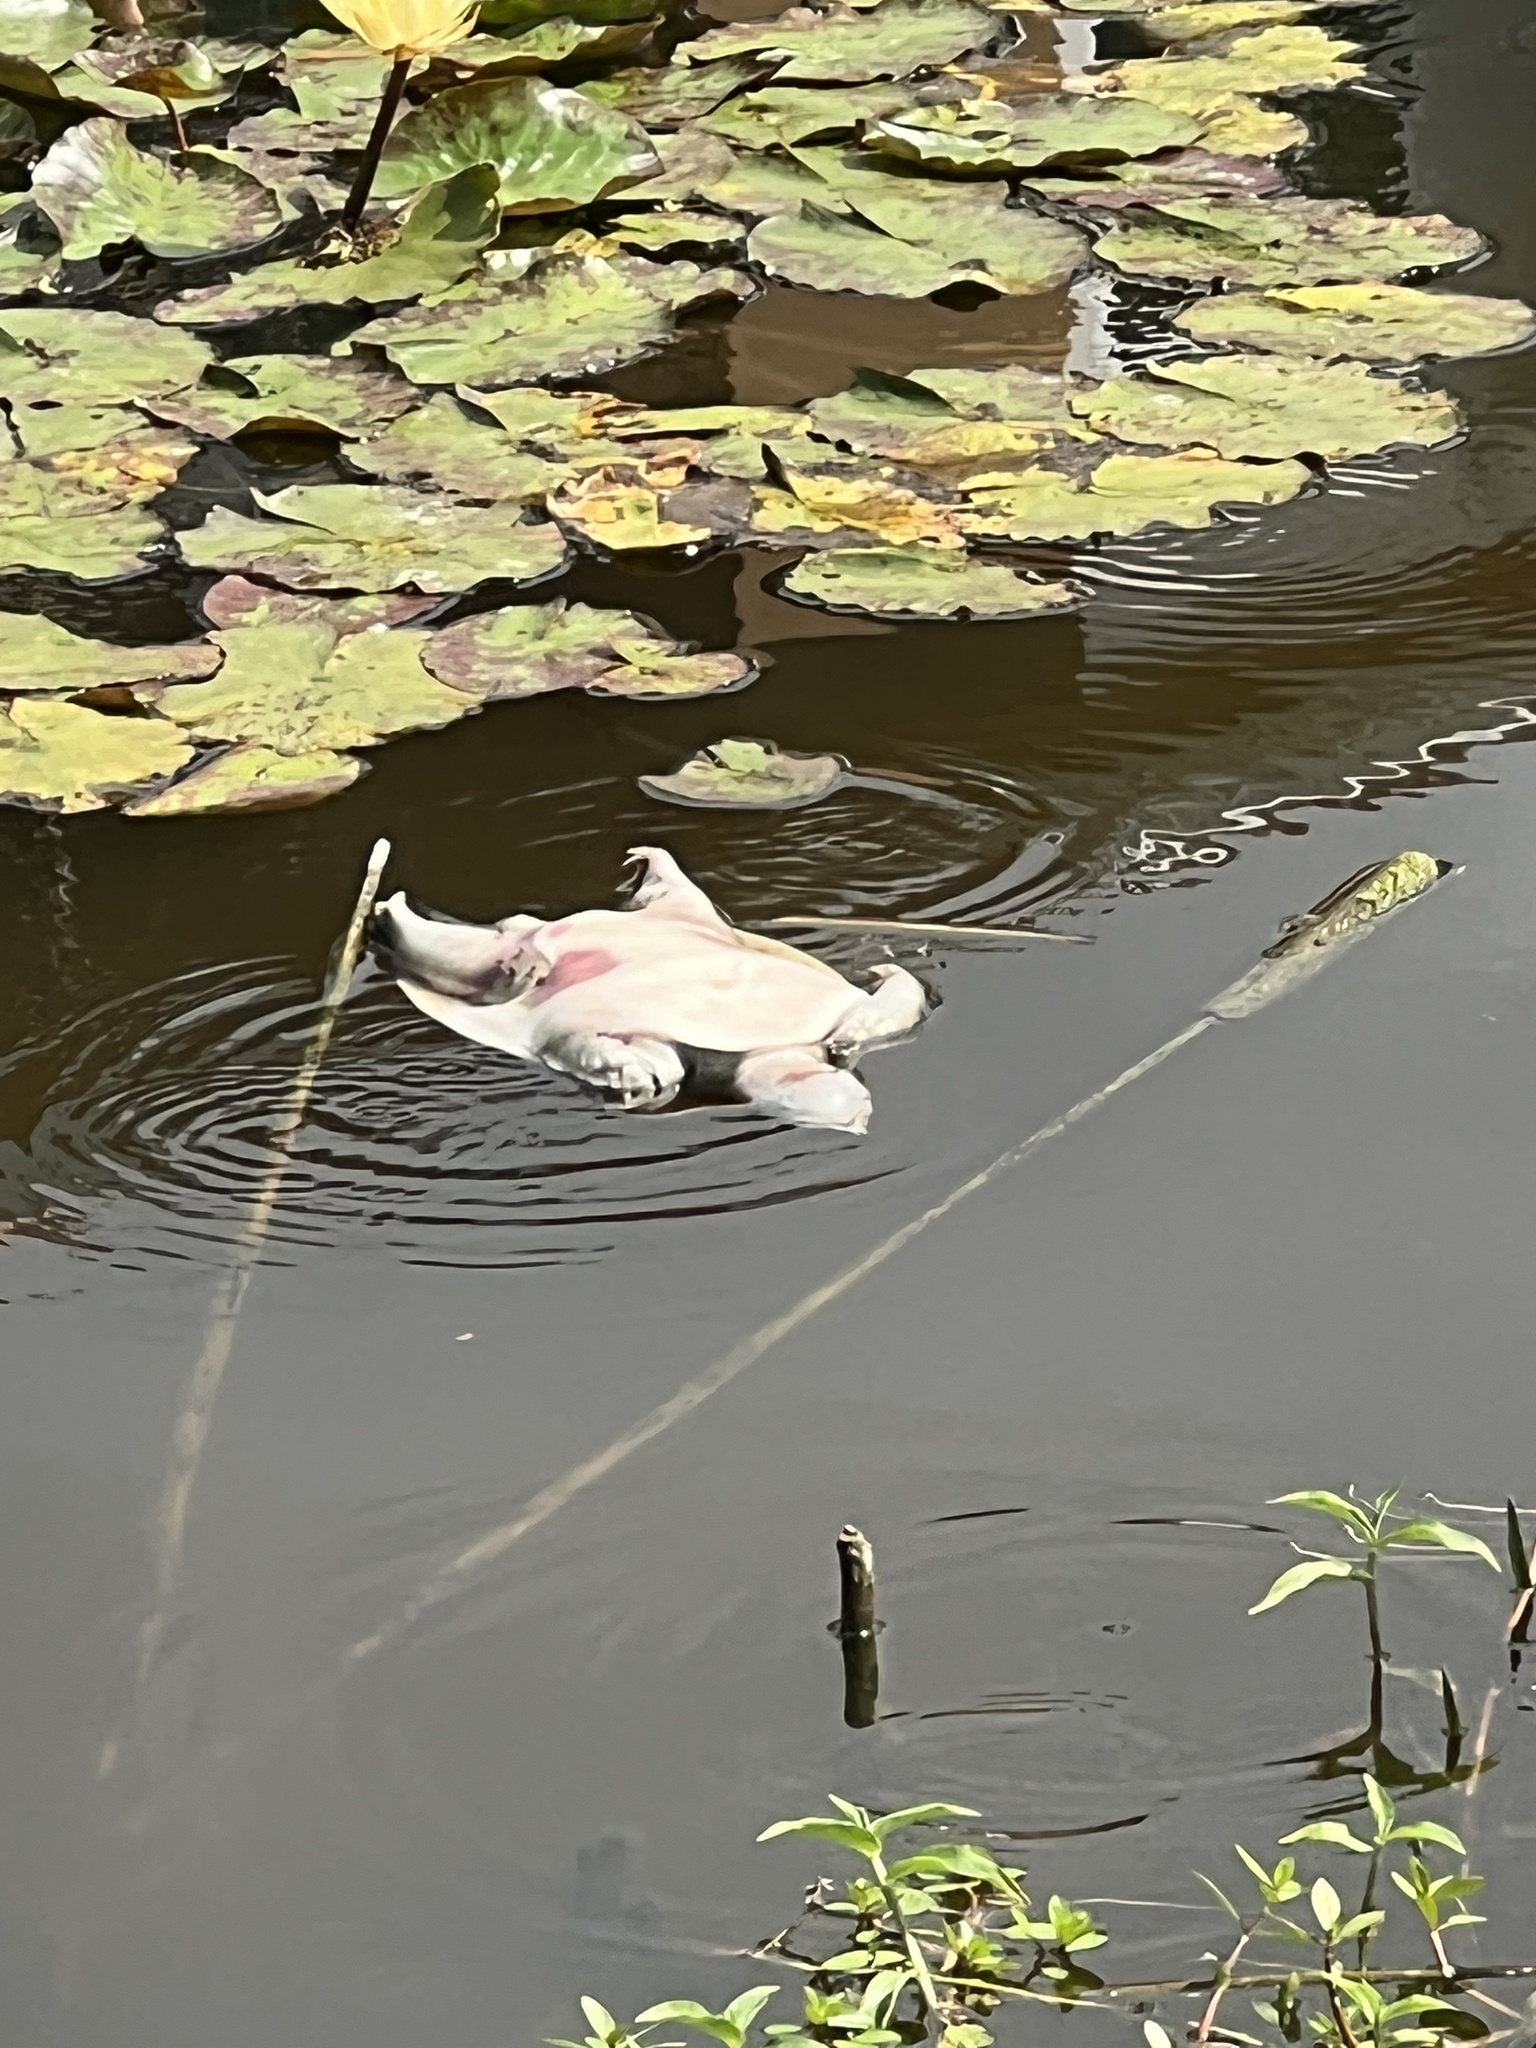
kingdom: Animalia
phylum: Chordata
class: Testudines
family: Trionychidae
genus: Apalone
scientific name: Apalone ferox
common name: Florida softshell turtle
